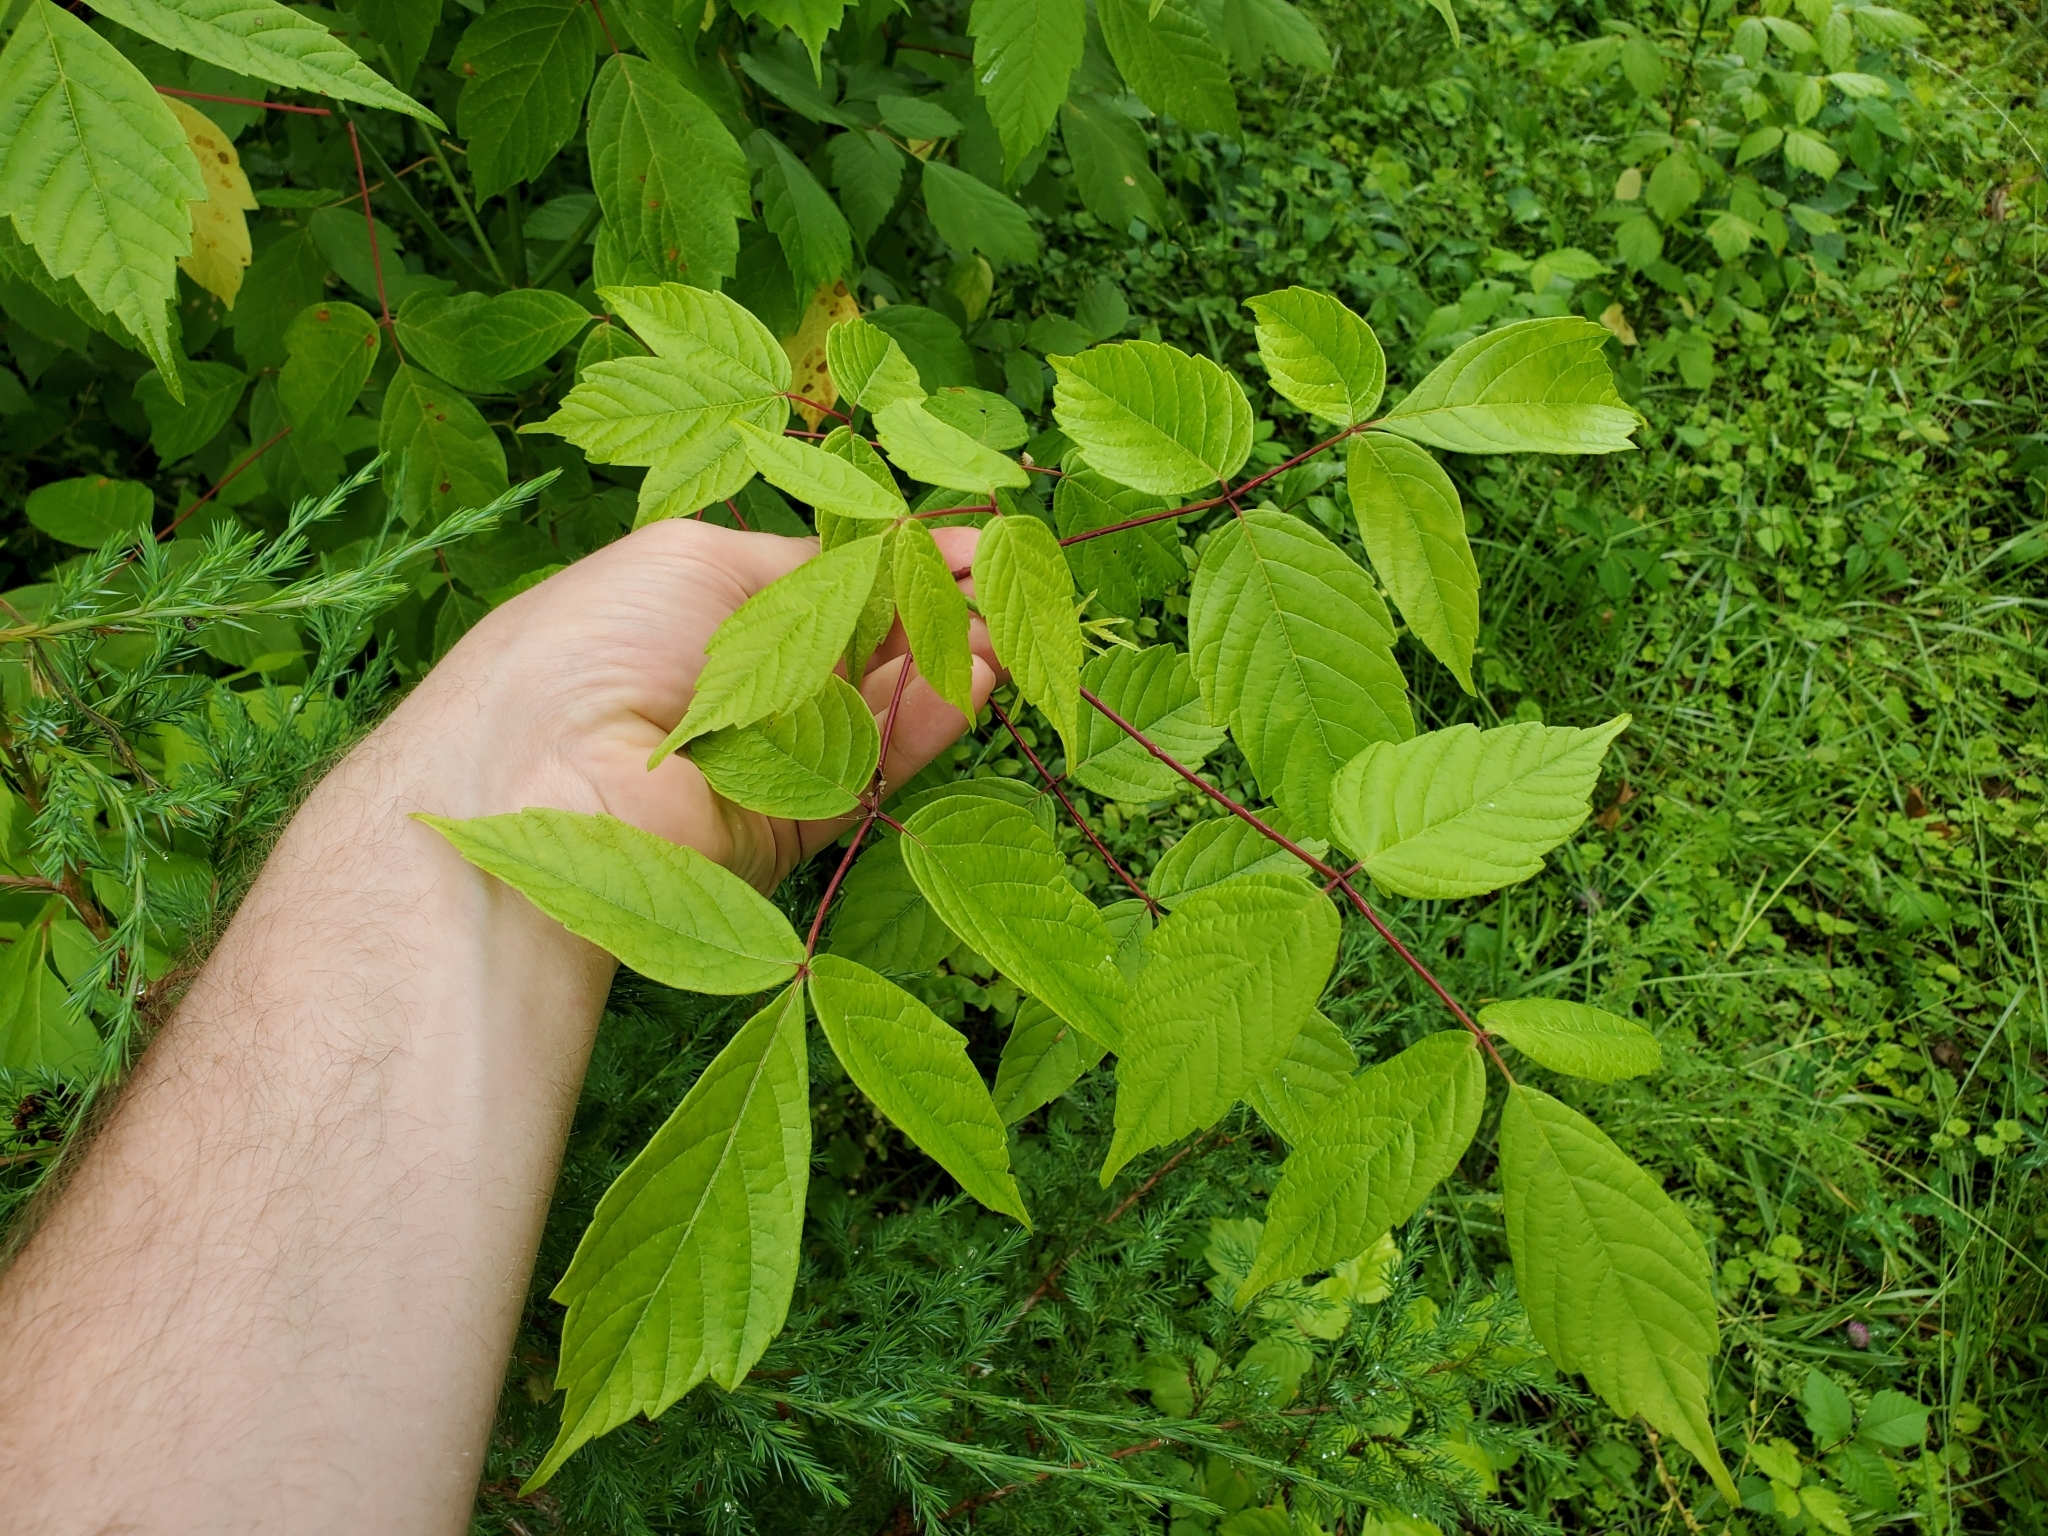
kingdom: Plantae
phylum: Tracheophyta
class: Magnoliopsida
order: Sapindales
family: Sapindaceae
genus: Acer
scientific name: Acer negundo
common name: Ashleaf maple
